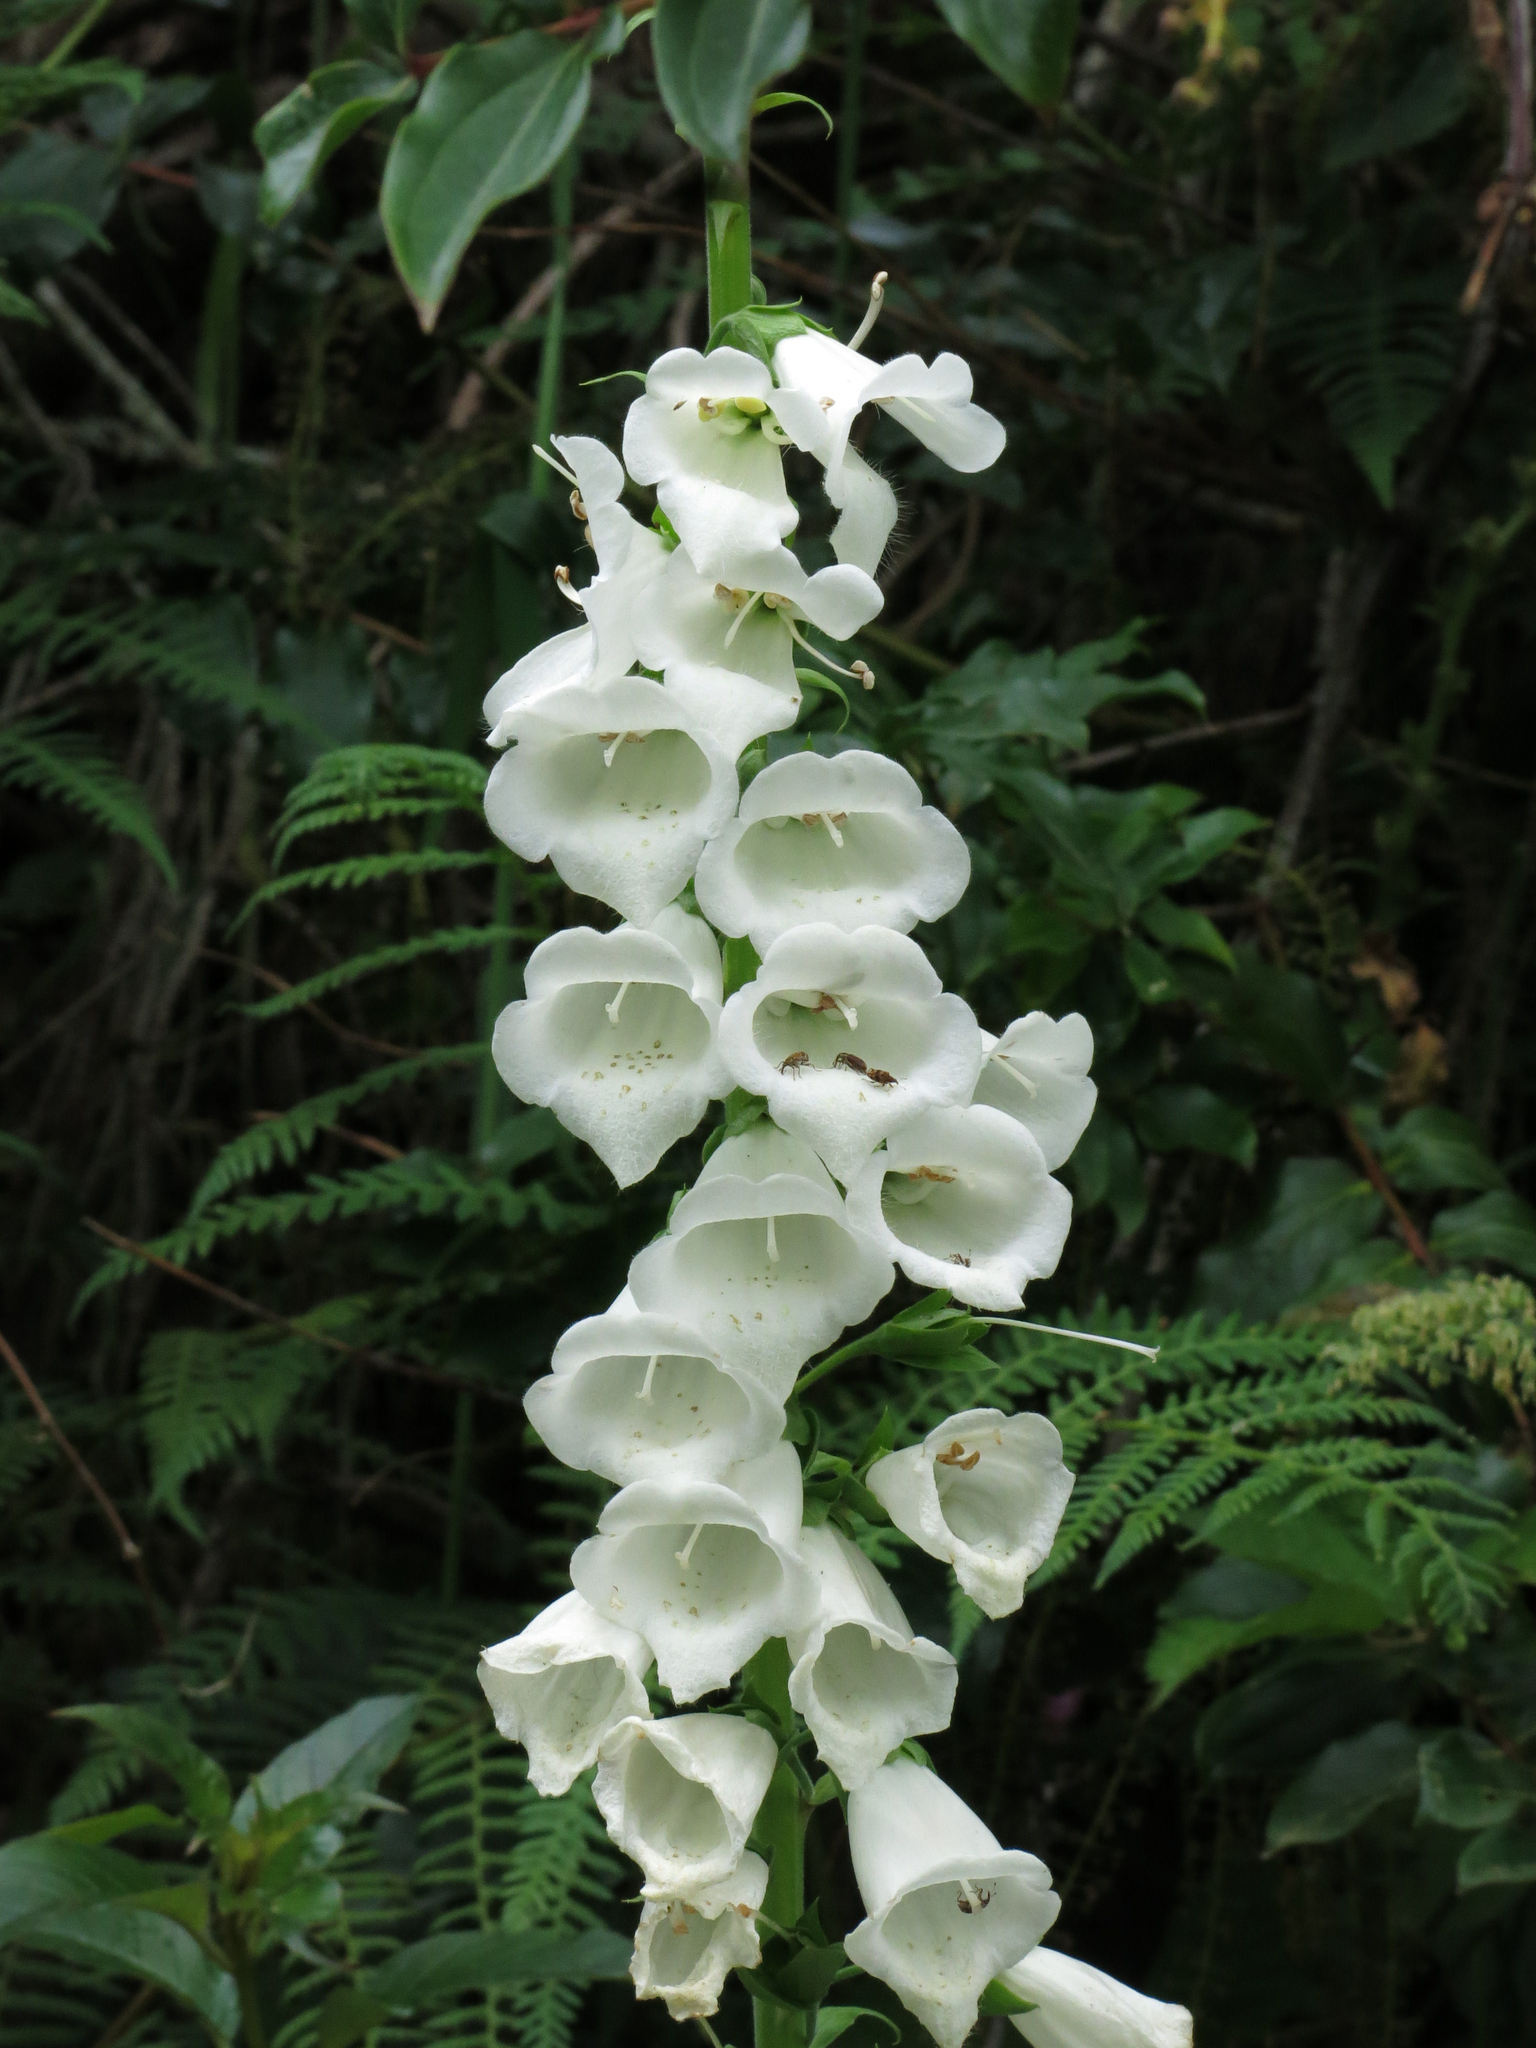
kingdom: Plantae
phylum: Tracheophyta
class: Magnoliopsida
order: Lamiales
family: Plantaginaceae
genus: Digitalis
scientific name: Digitalis purpurea
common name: Foxglove
